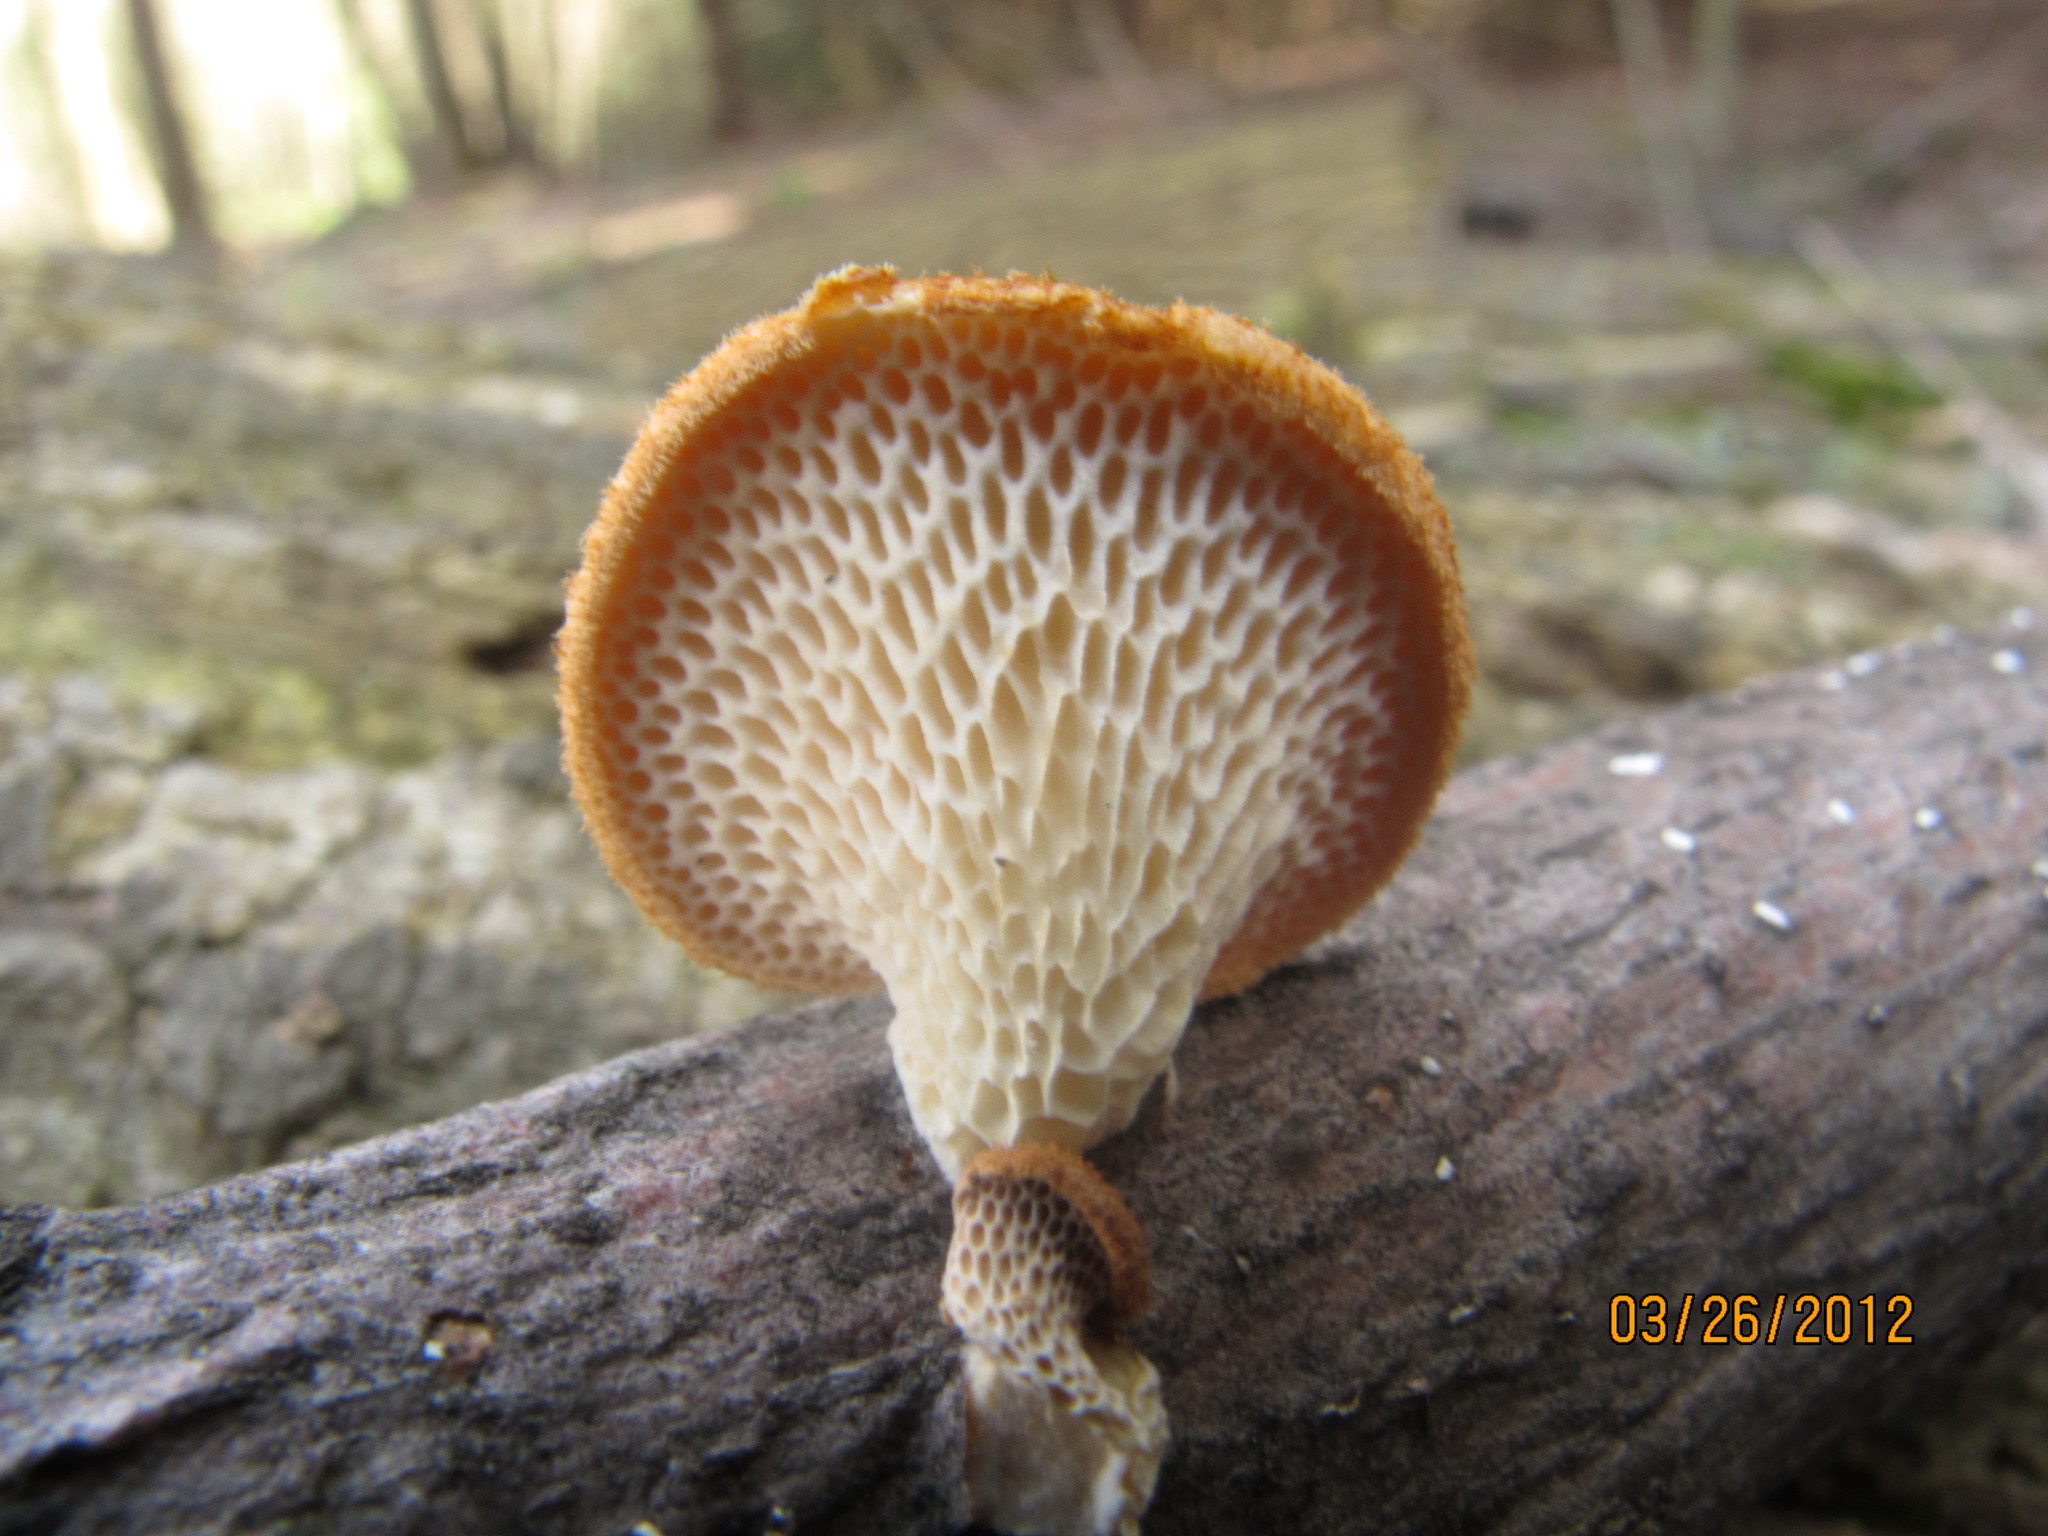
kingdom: Fungi
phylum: Basidiomycota
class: Agaricomycetes
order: Polyporales
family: Polyporaceae
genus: Neofavolus
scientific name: Neofavolus alveolaris
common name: Hexagonal-pored polypore
